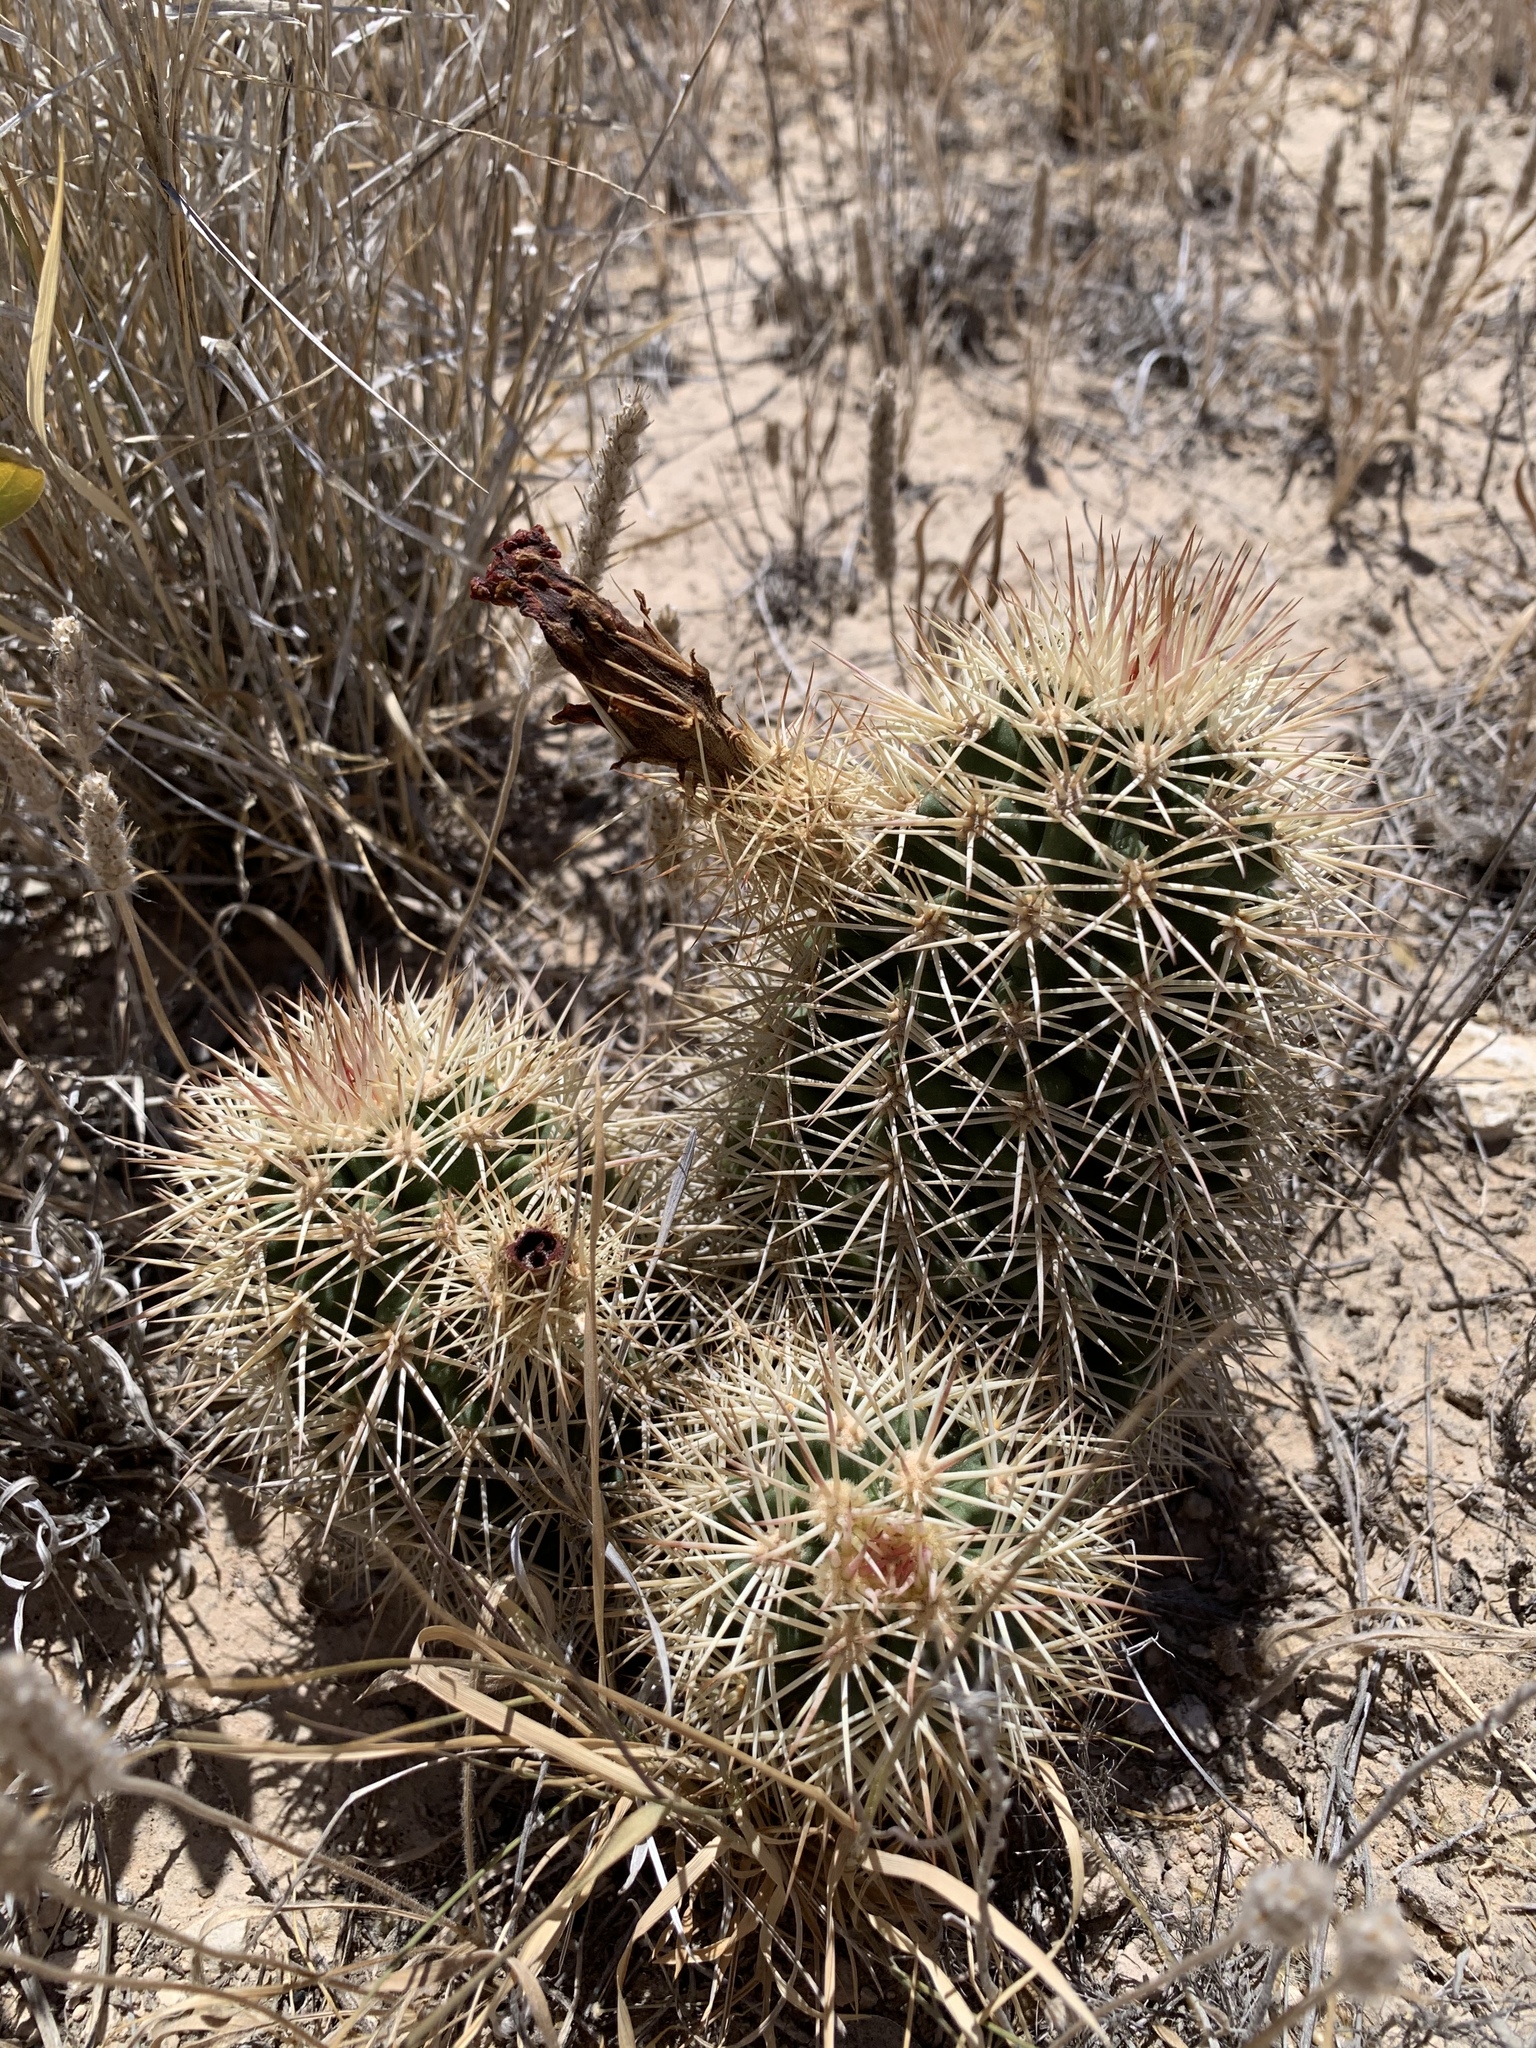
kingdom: Plantae
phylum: Tracheophyta
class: Magnoliopsida
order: Caryophyllales
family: Cactaceae
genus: Echinocereus
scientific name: Echinocereus roetteri
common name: Lloyd's hedgehog cactus
